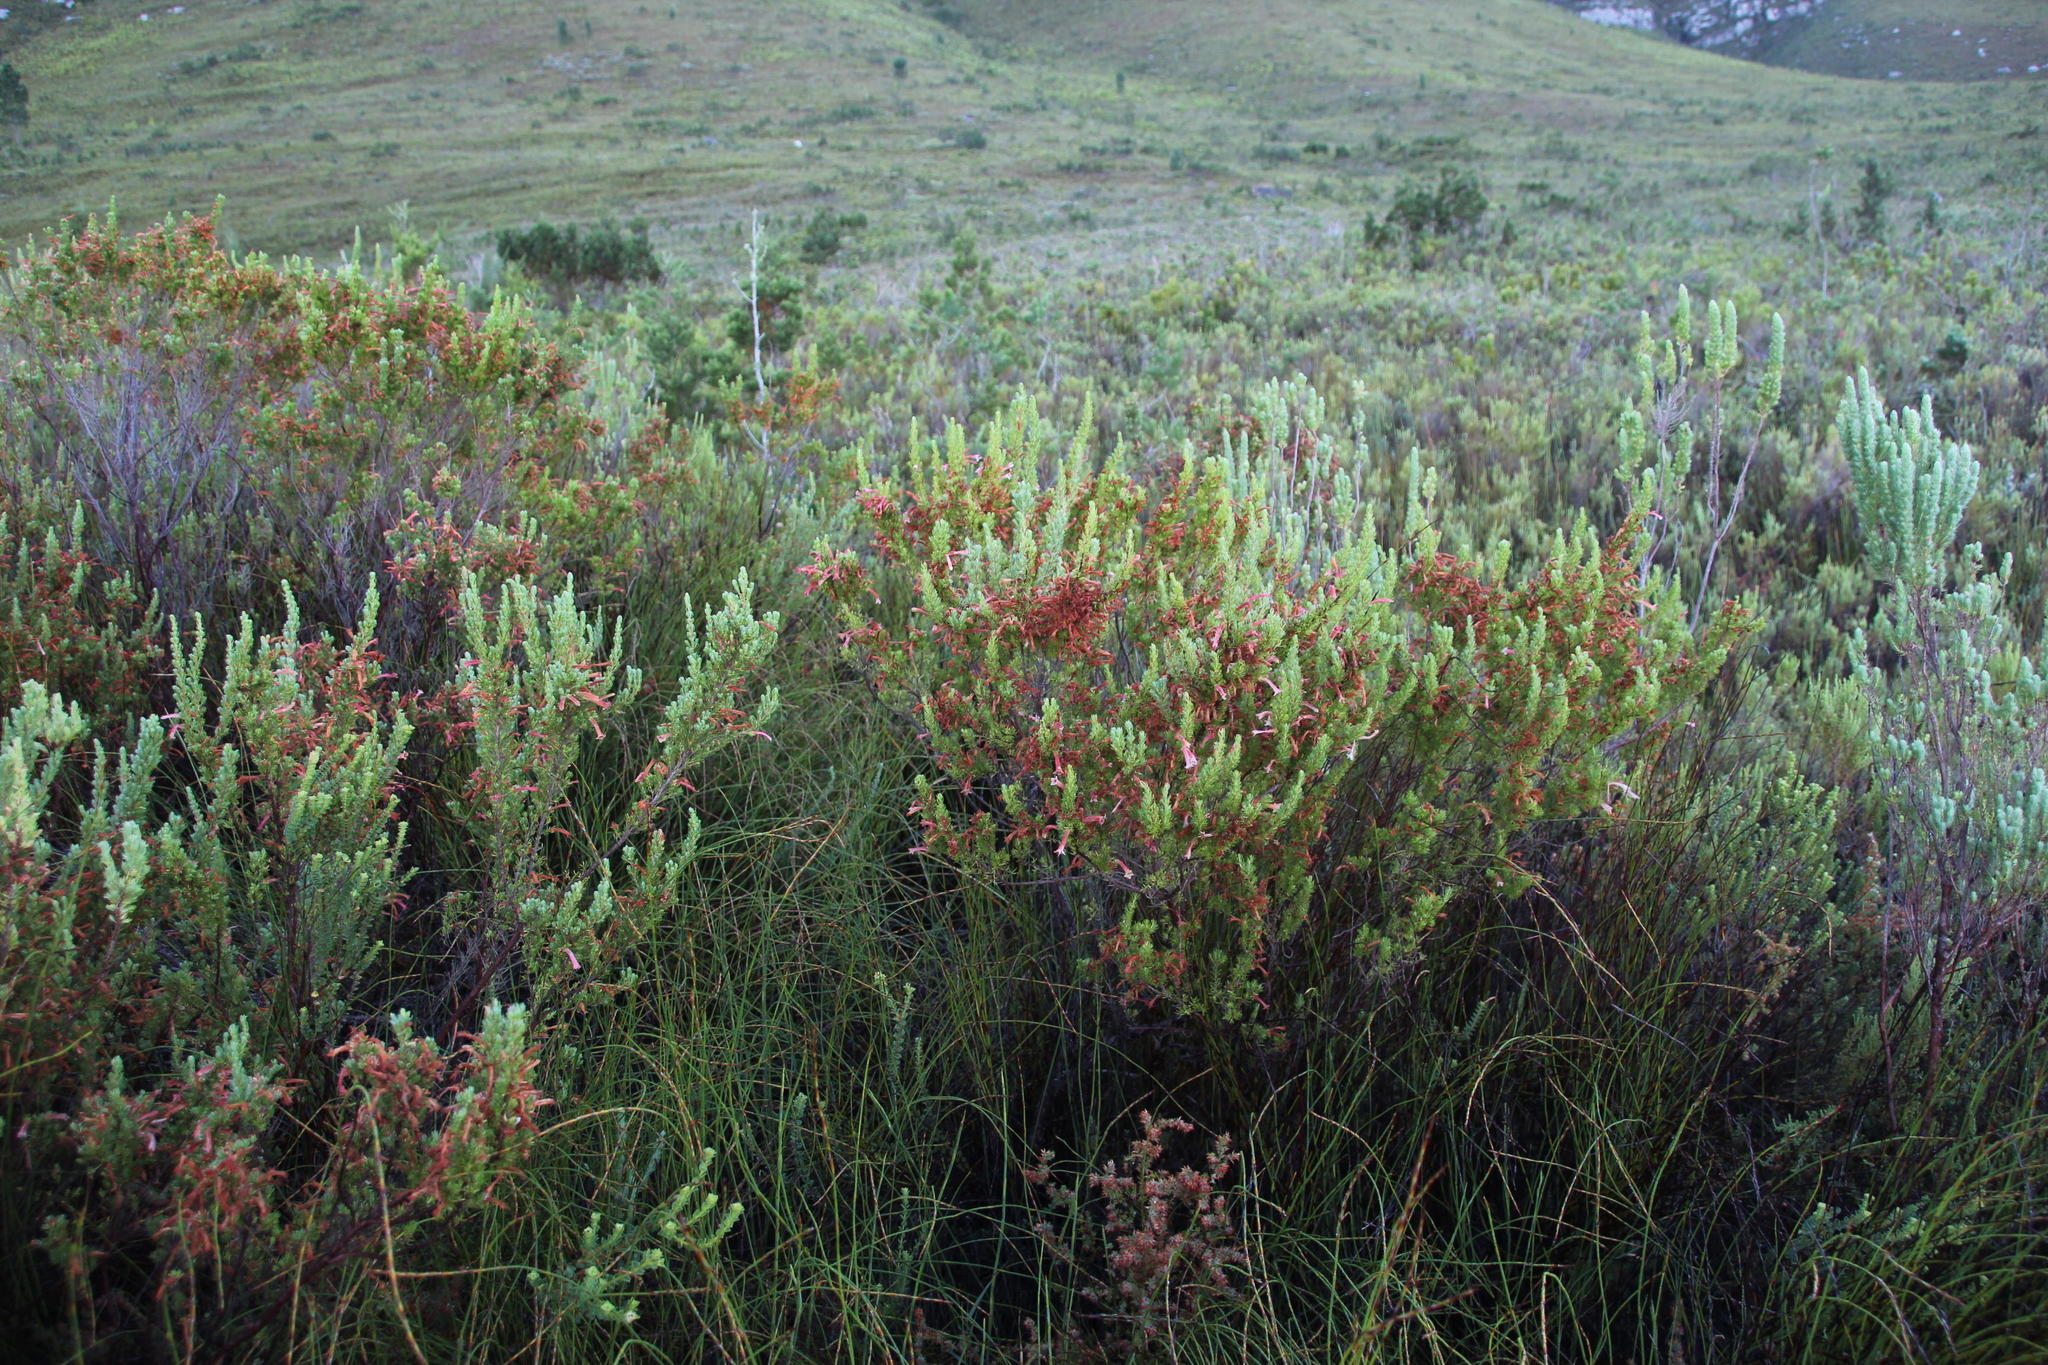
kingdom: Plantae
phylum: Tracheophyta
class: Magnoliopsida
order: Ericales
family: Ericaceae
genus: Erica
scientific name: Erica curviflora
